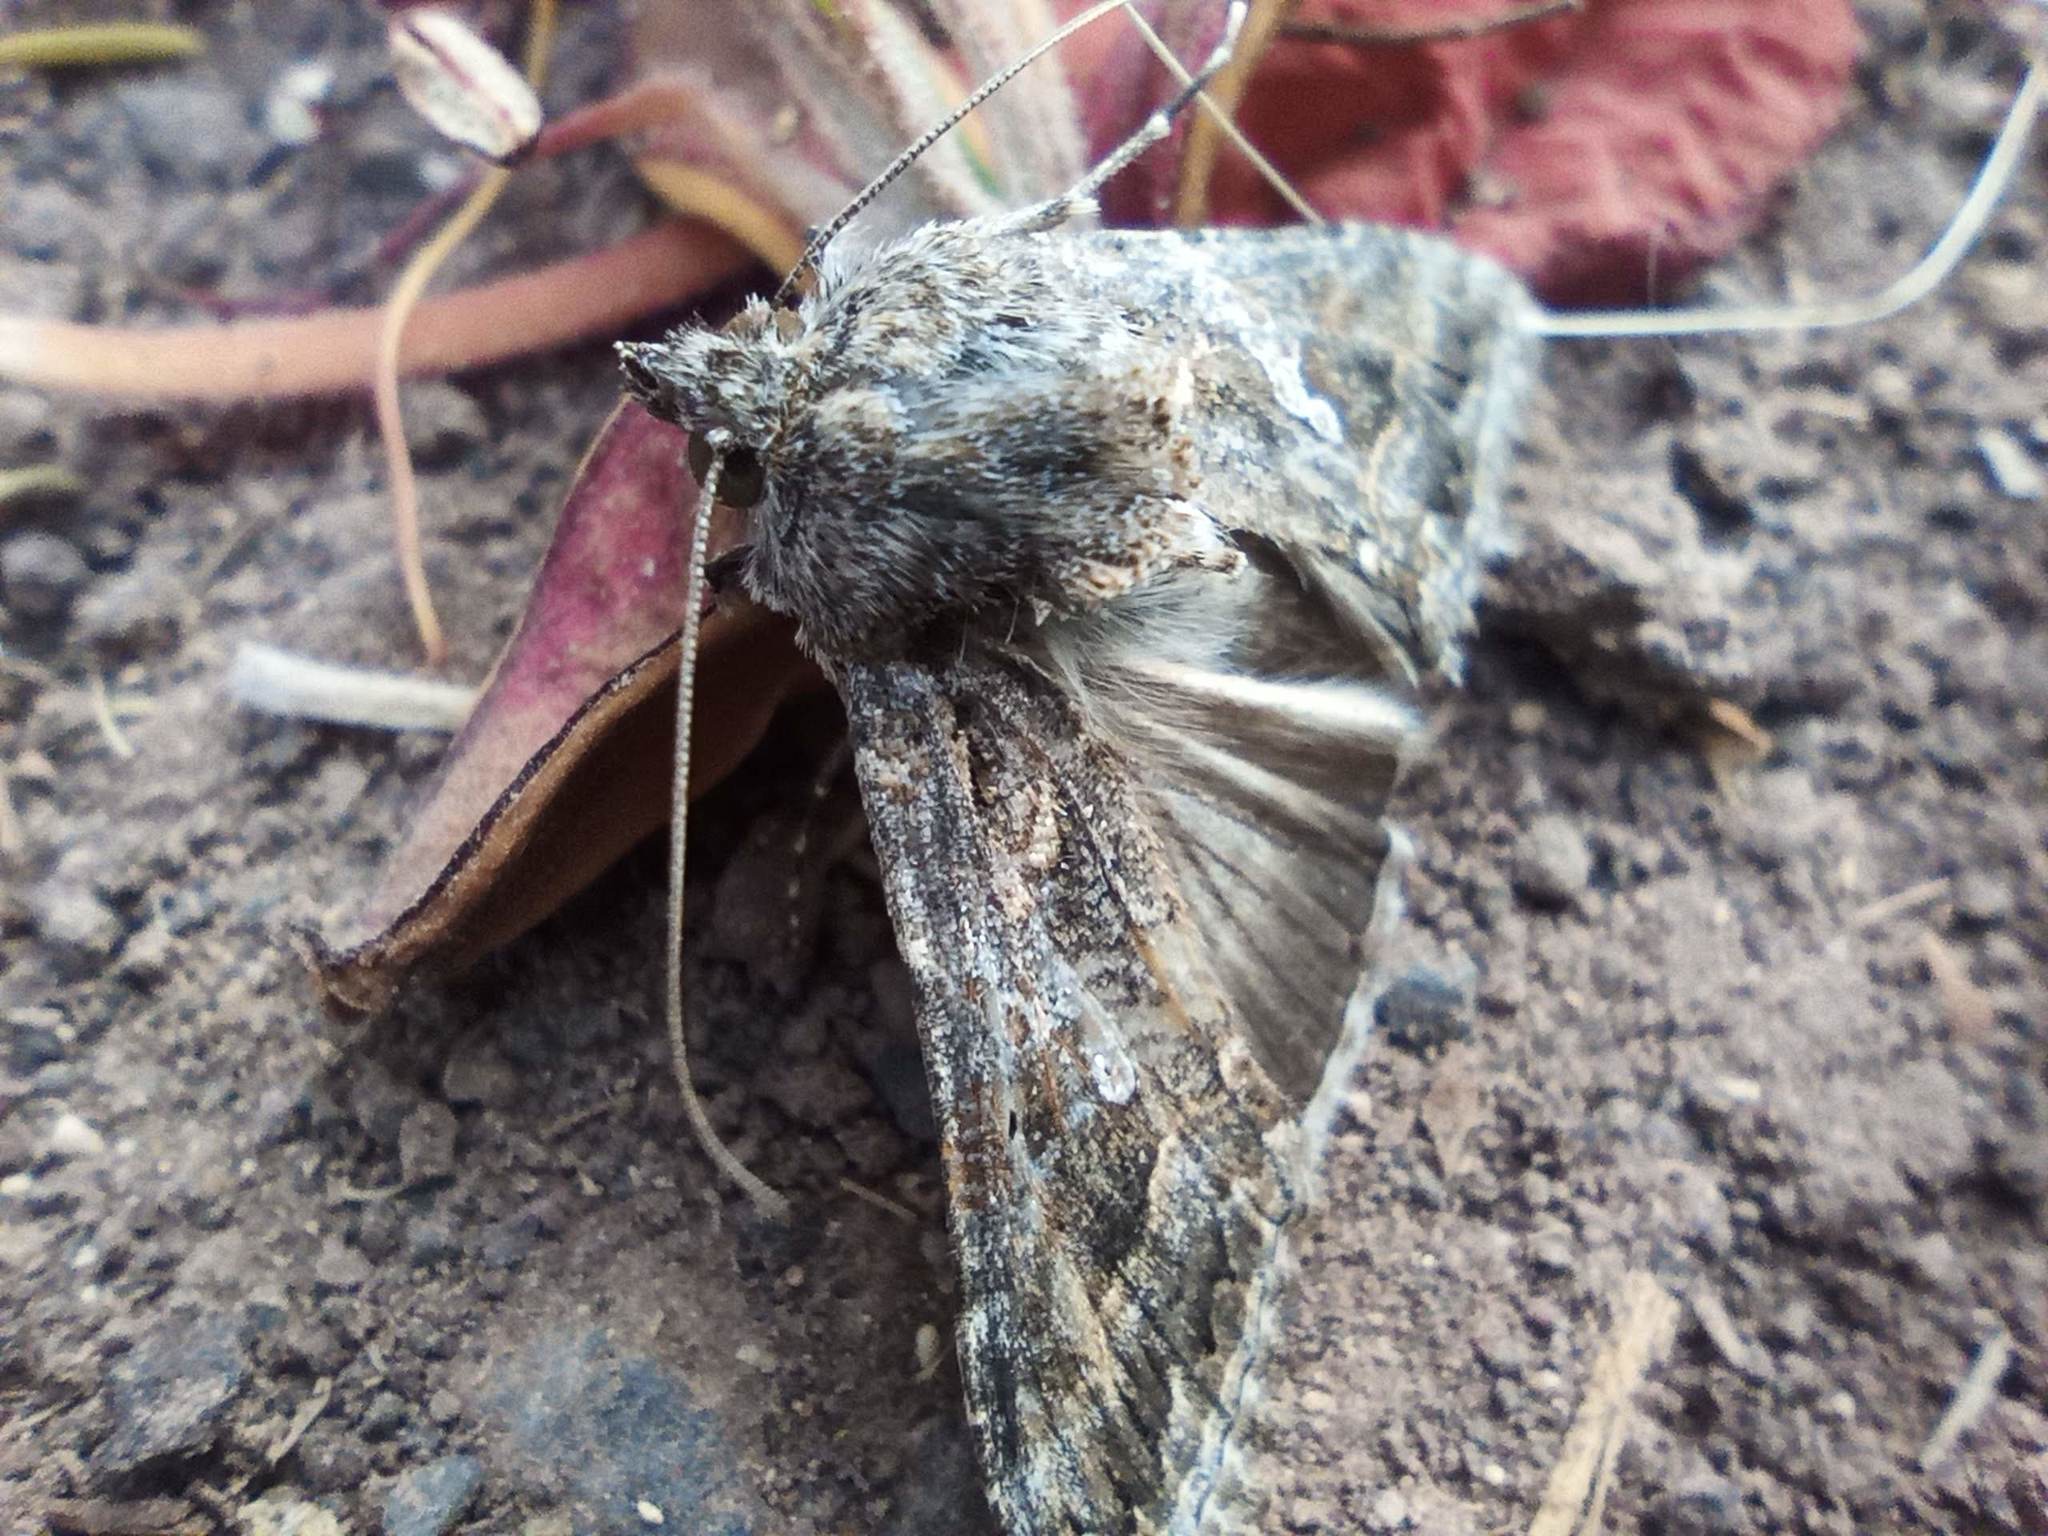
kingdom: Animalia
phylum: Arthropoda
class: Insecta
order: Lepidoptera
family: Noctuidae
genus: Trichoplusia
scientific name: Trichoplusia ni
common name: Ni moth
